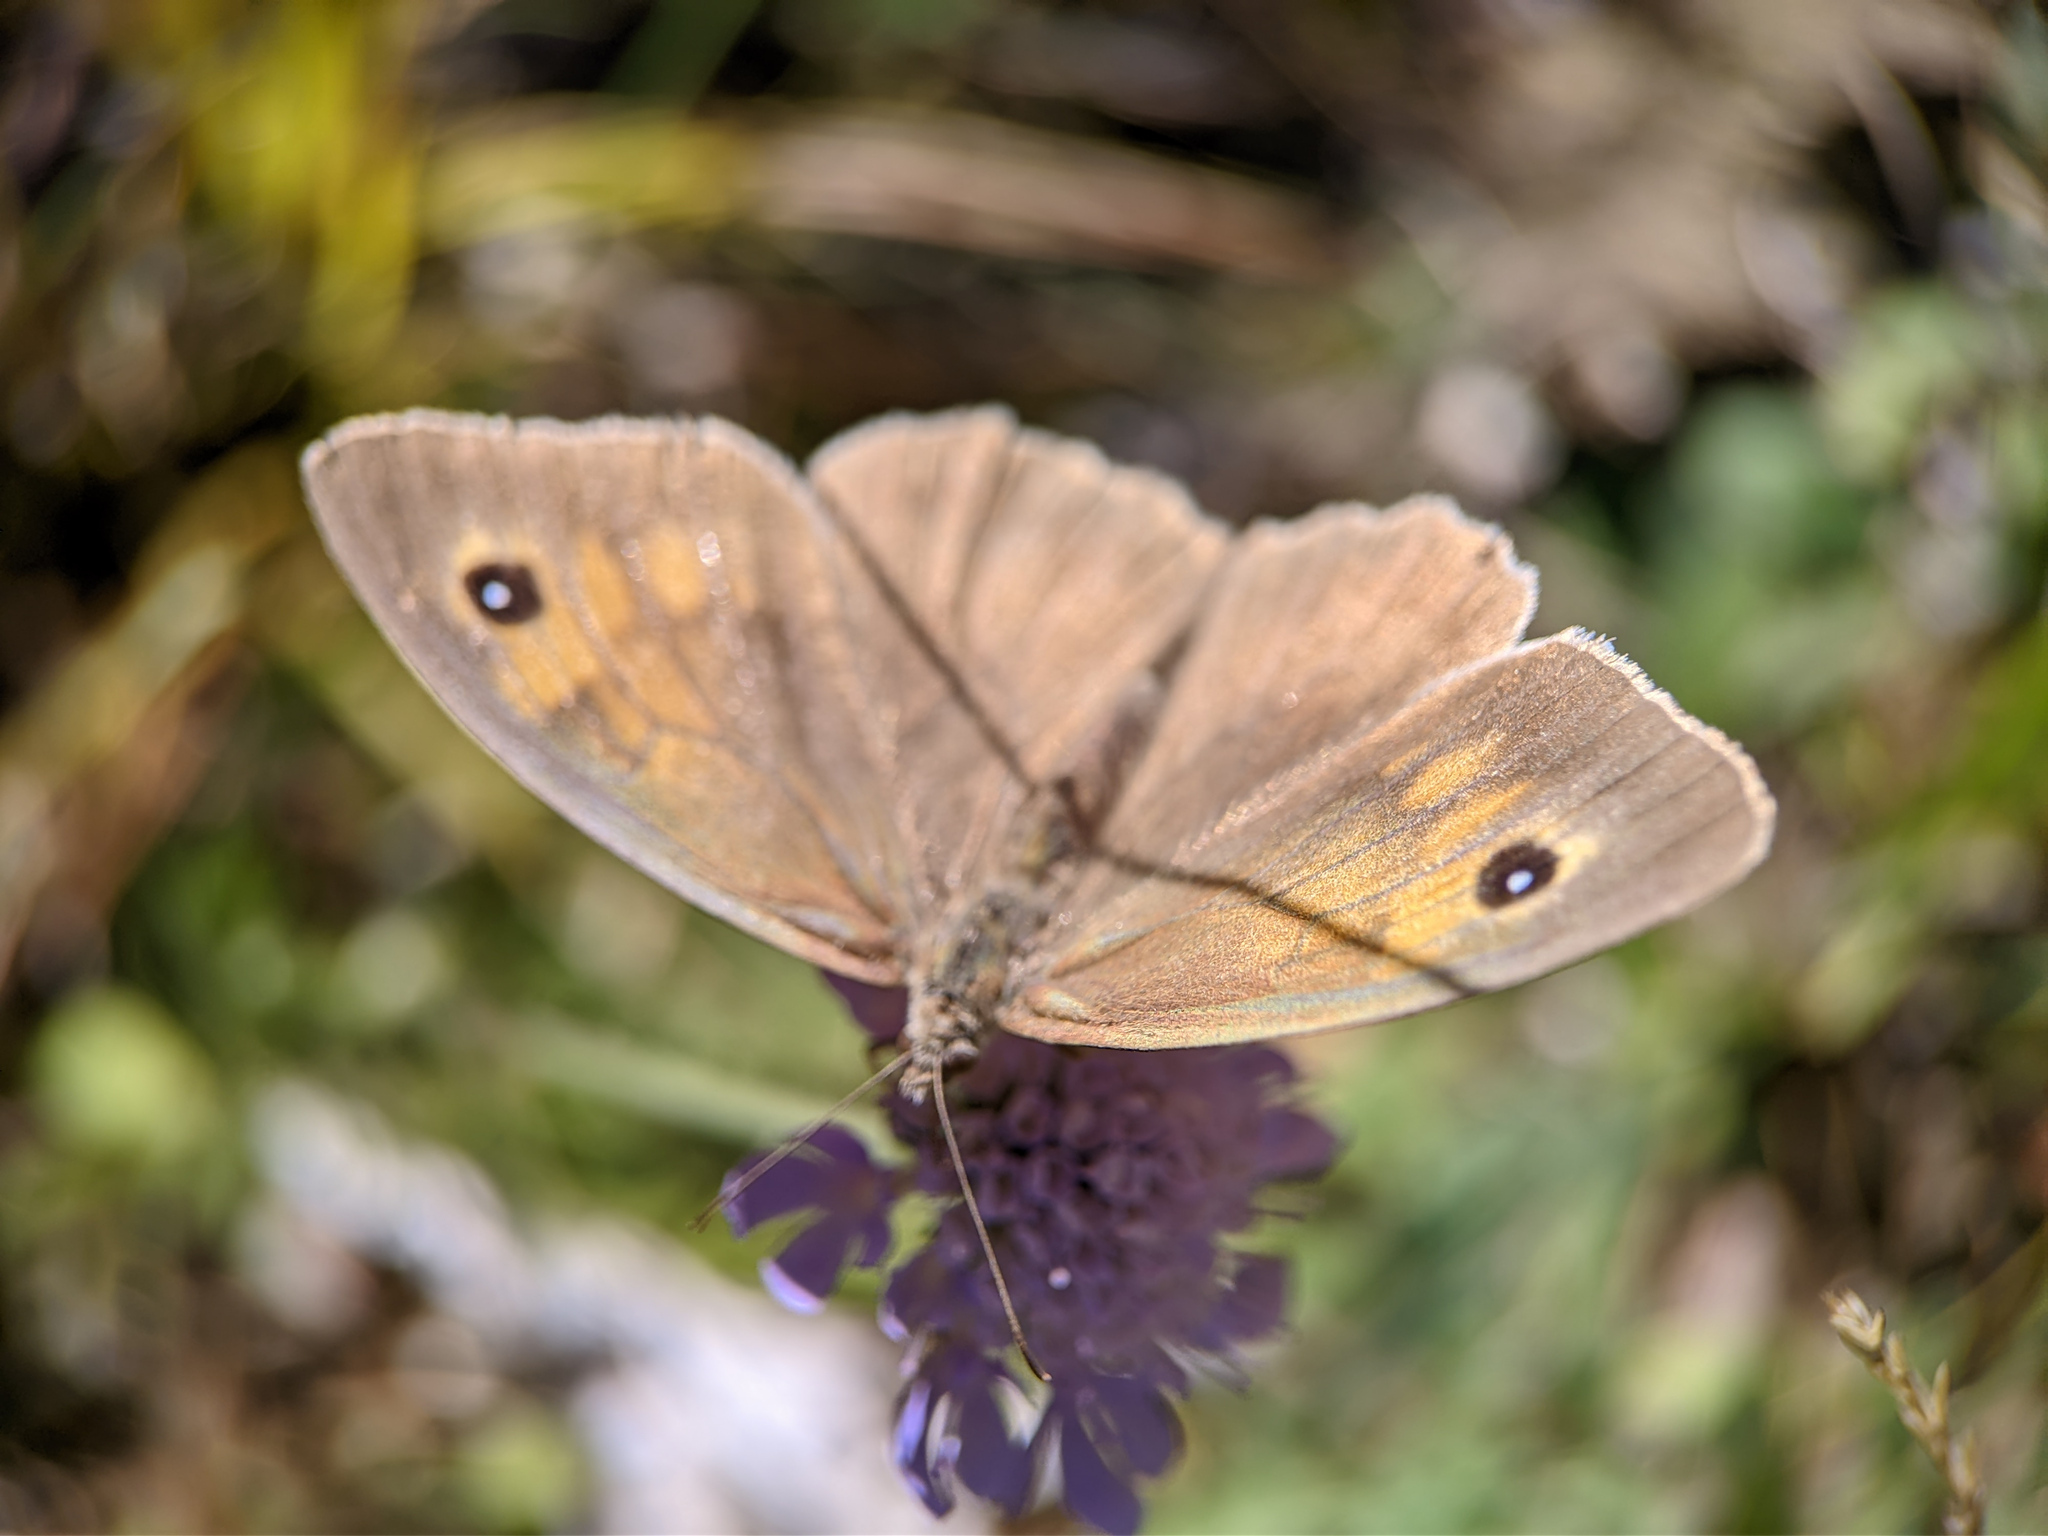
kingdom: Animalia
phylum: Arthropoda
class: Insecta
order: Lepidoptera
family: Nymphalidae
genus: Maniola
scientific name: Maniola jurtina
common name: Meadow brown
